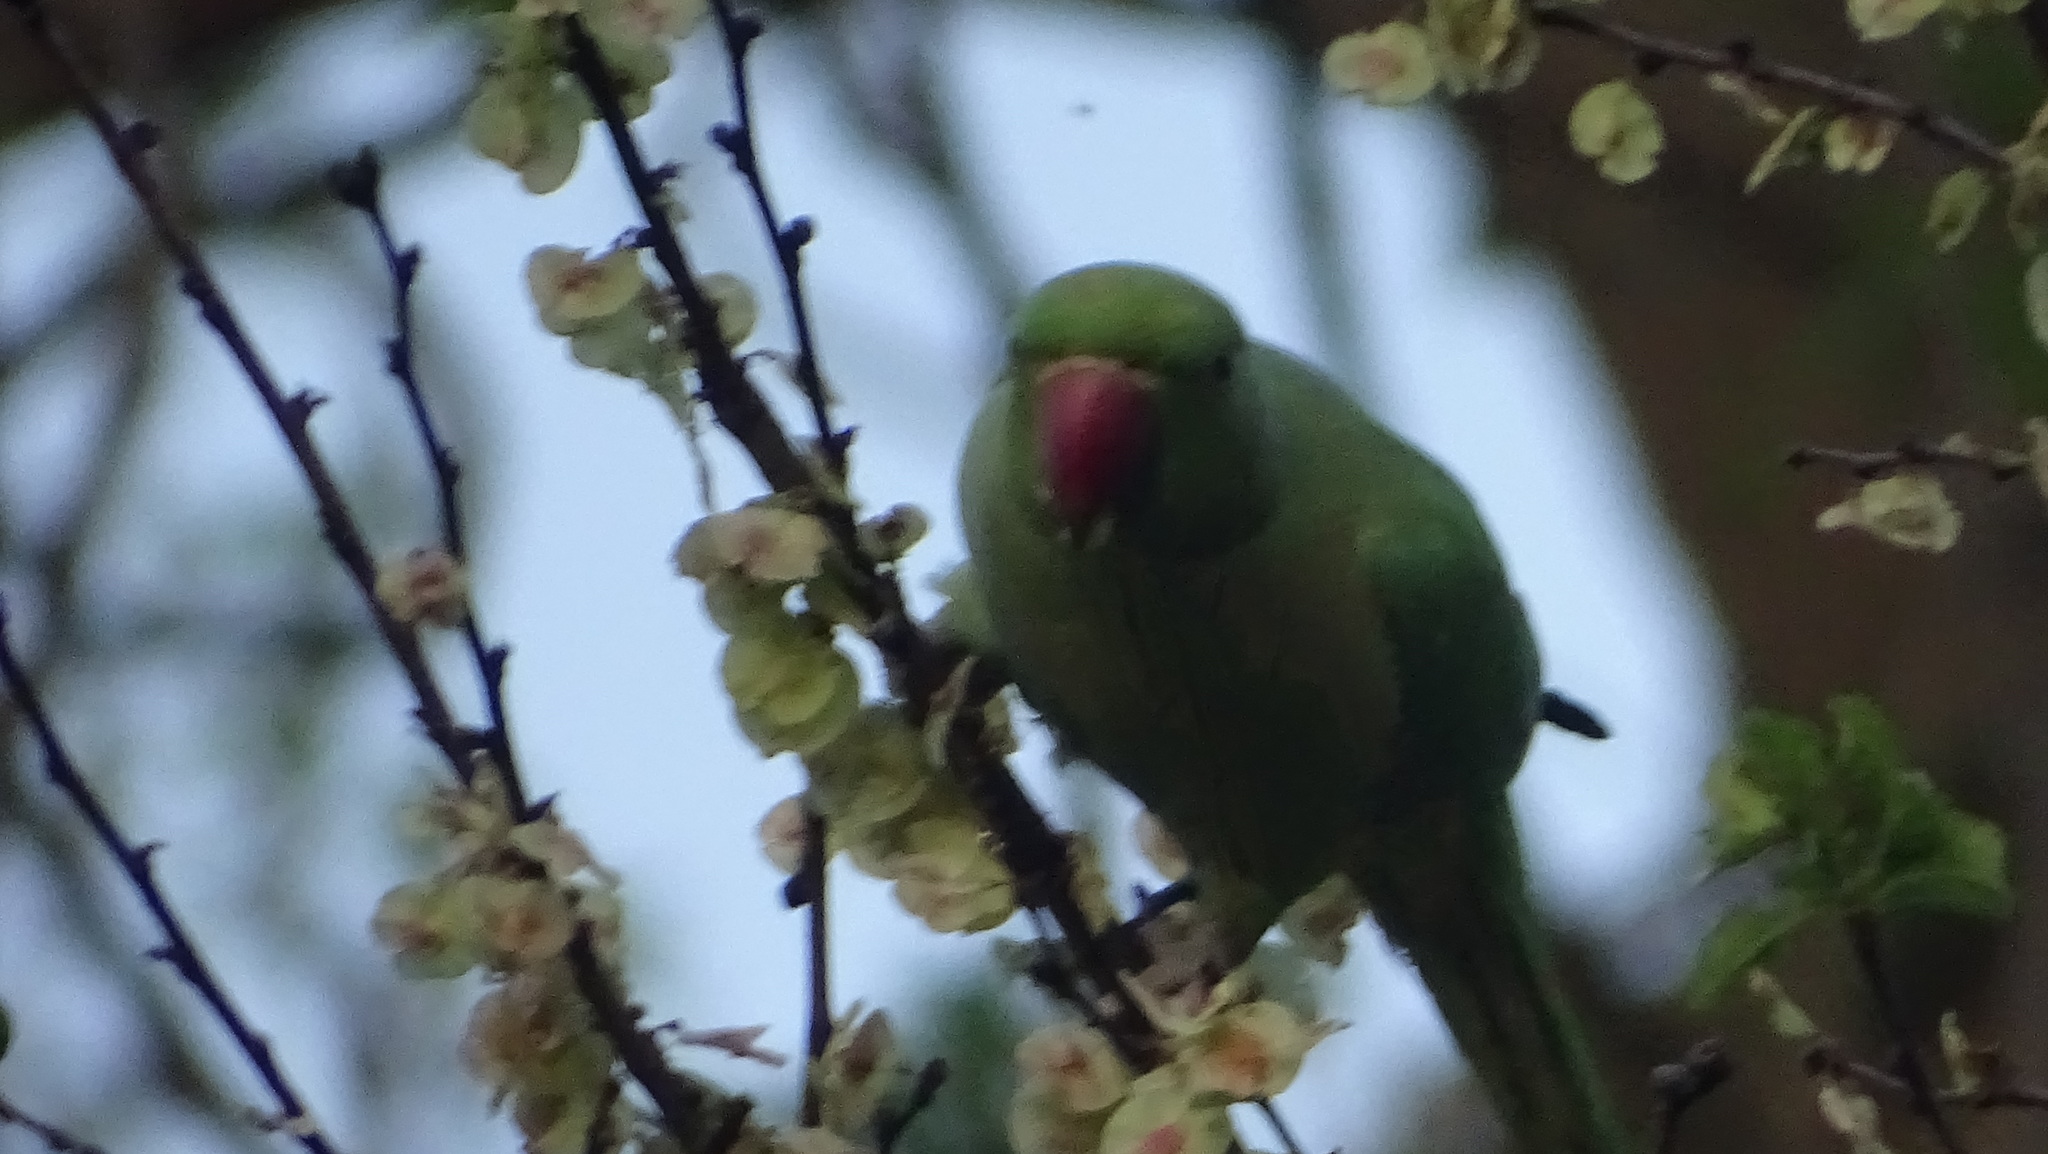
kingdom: Animalia
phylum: Chordata
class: Aves
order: Psittaciformes
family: Psittacidae
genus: Psittacula
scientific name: Psittacula krameri
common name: Rose-ringed parakeet
